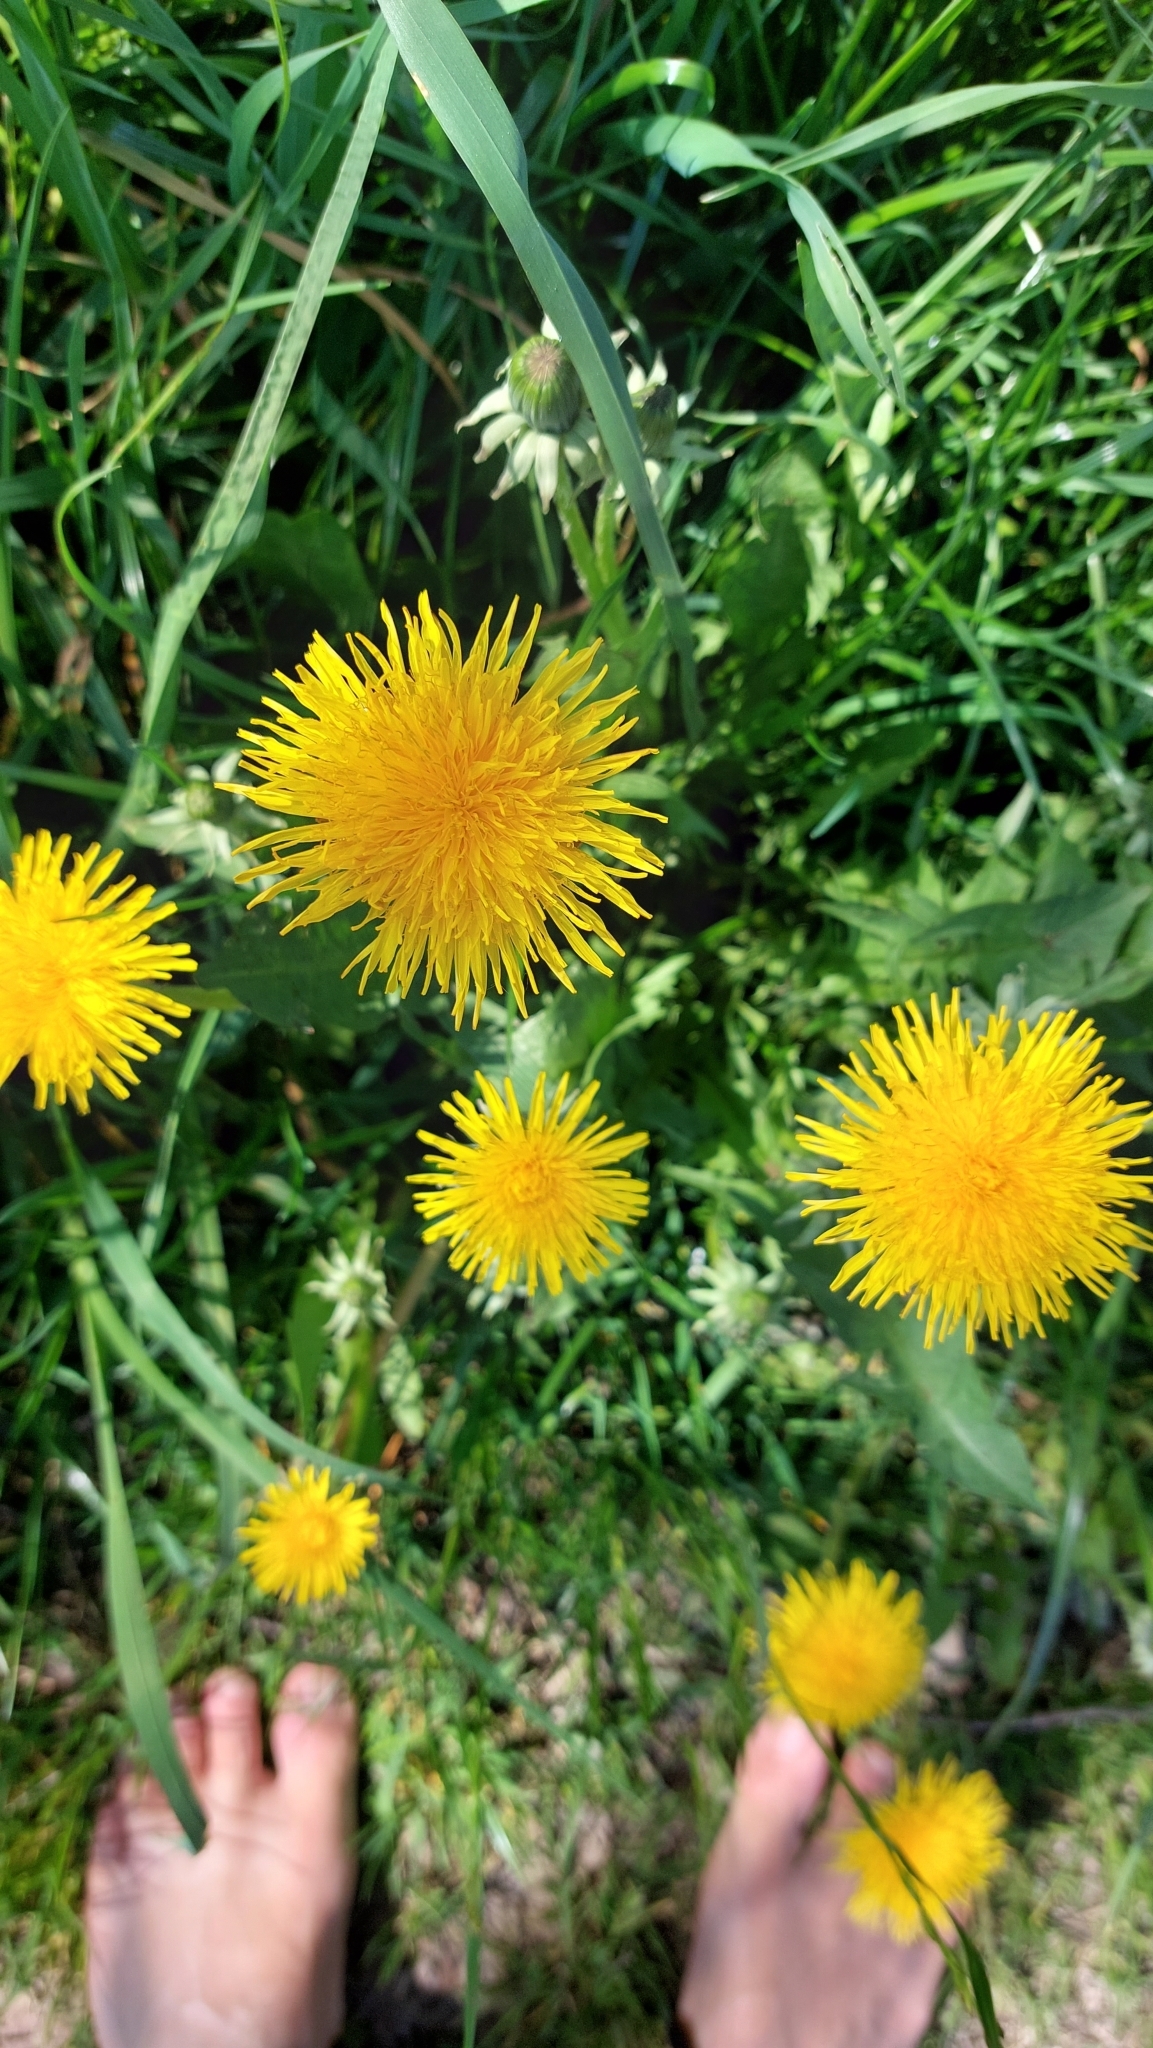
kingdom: Plantae
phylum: Tracheophyta
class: Magnoliopsida
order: Asterales
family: Asteraceae
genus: Taraxacum
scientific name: Taraxacum
